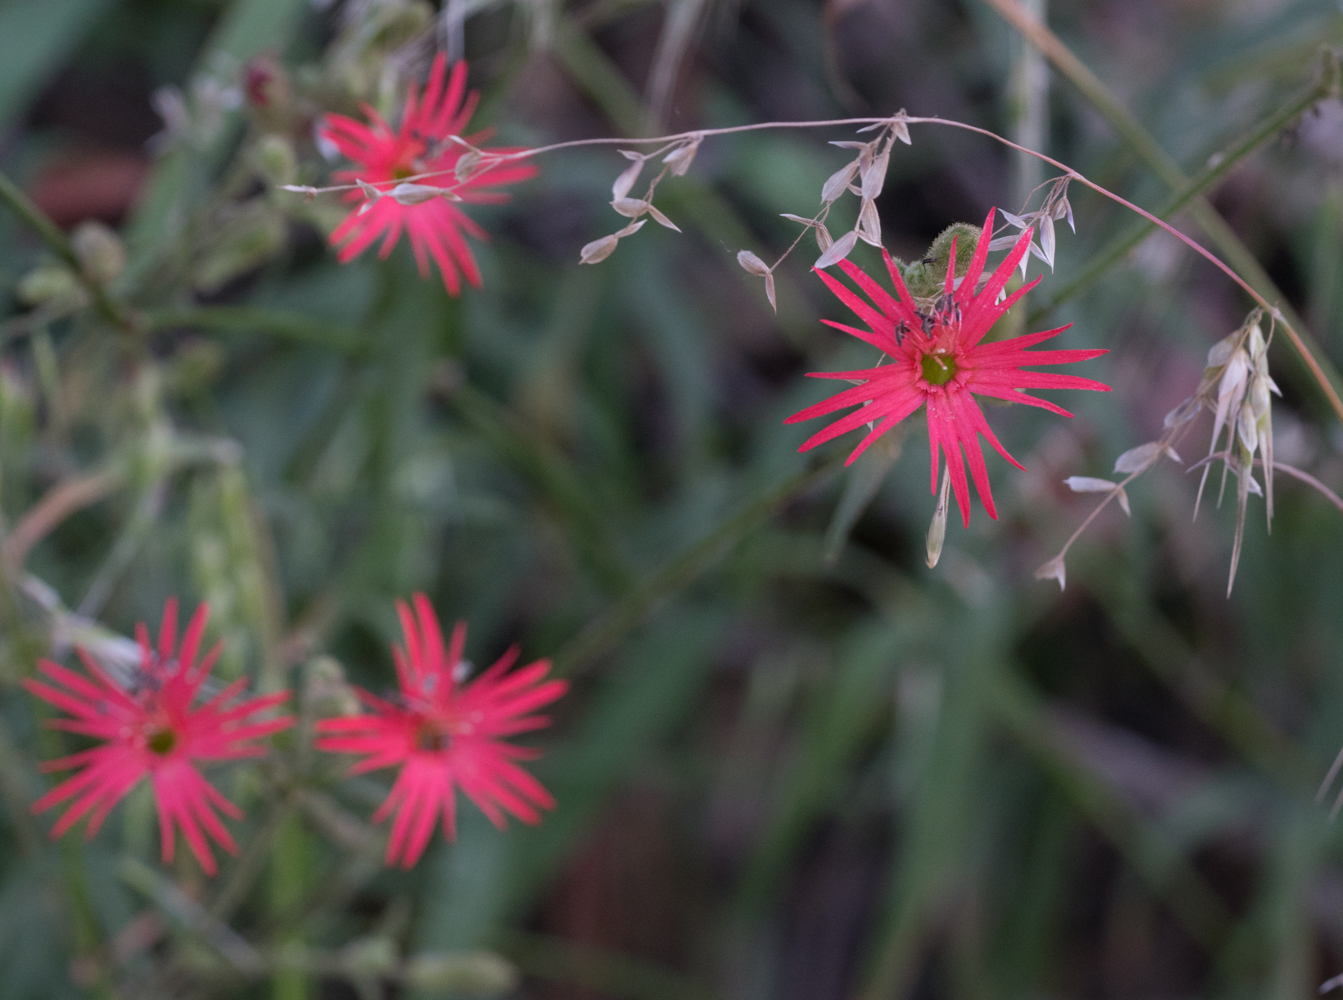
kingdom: Plantae
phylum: Tracheophyta
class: Magnoliopsida
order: Caryophyllales
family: Caryophyllaceae
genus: Silene
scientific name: Silene laciniata
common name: Indian-pink
